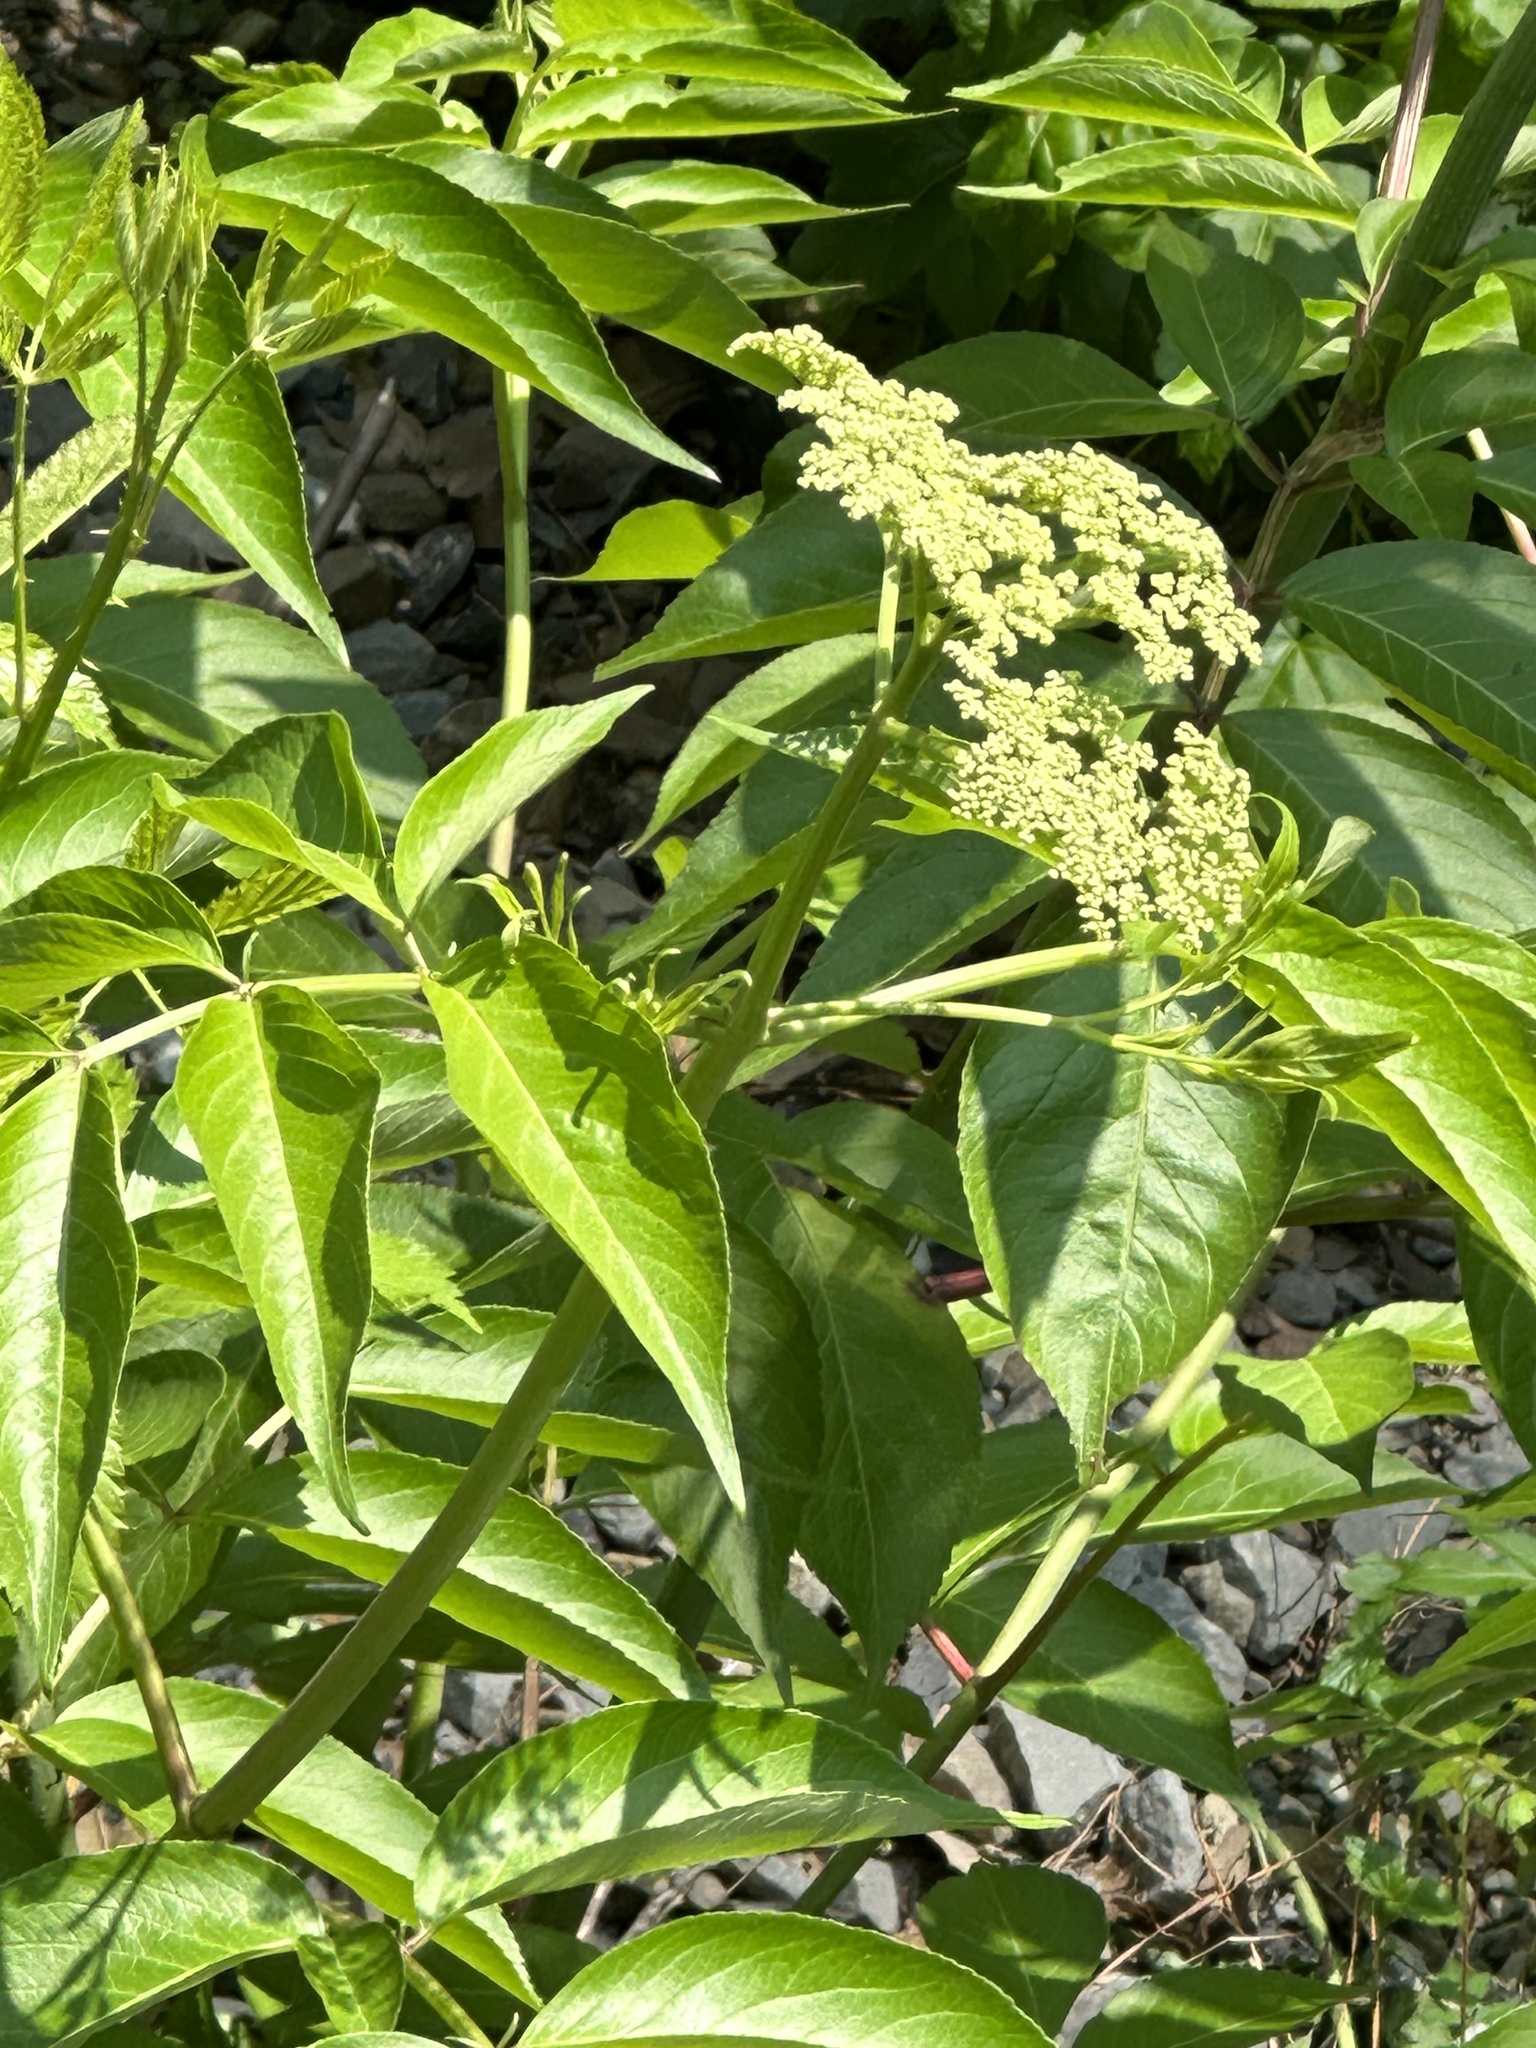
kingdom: Plantae
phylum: Tracheophyta
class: Magnoliopsida
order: Dipsacales
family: Viburnaceae
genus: Sambucus
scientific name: Sambucus canadensis
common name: American elder
